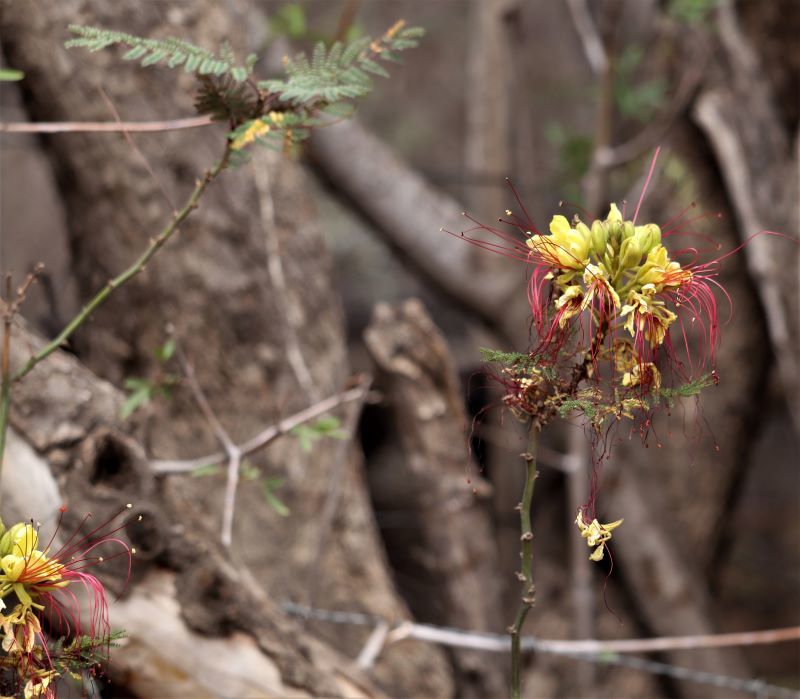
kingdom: Plantae
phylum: Tracheophyta
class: Magnoliopsida
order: Fabales
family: Fabaceae
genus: Erythrostemon
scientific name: Erythrostemon gilliesii
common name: Bird-of-paradise shrub
